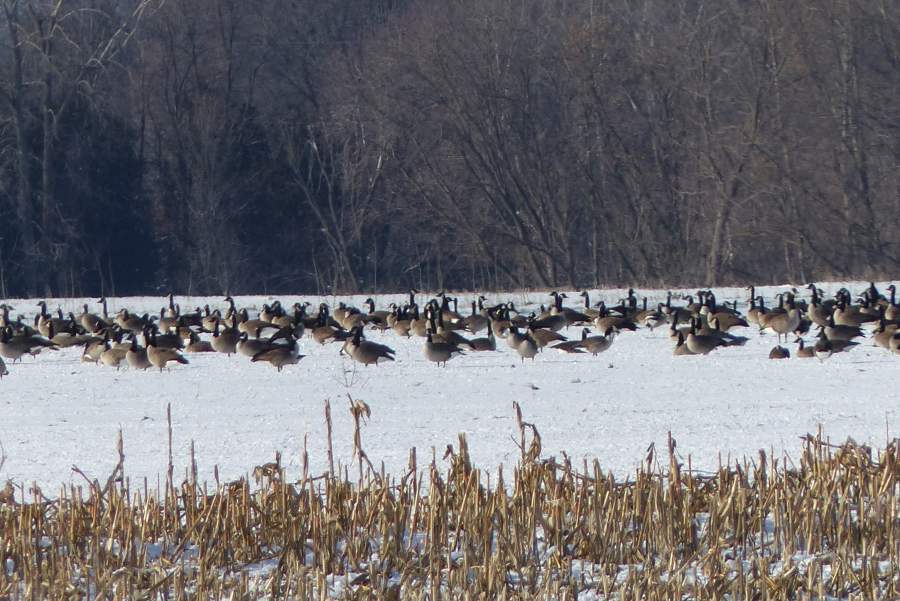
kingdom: Animalia
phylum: Chordata
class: Aves
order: Anseriformes
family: Anatidae
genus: Branta
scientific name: Branta canadensis
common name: Canada goose
